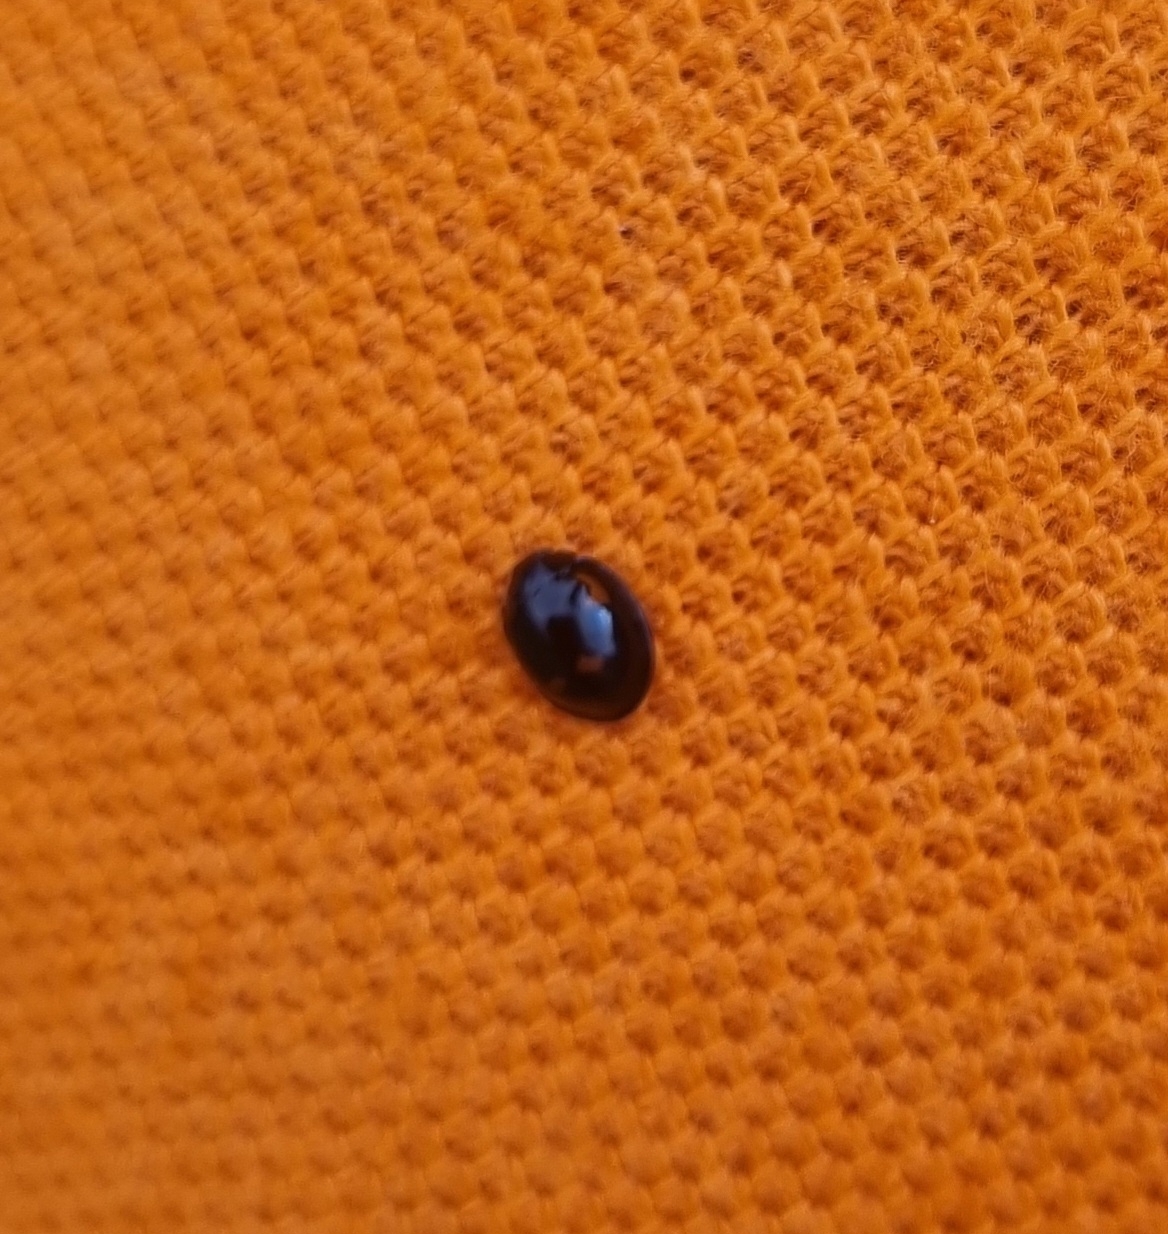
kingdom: Animalia
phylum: Arthropoda
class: Insecta
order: Coleoptera
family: Coccinellidae
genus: Brumus
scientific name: Brumus quadripustulatus
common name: Ladybird beetle
